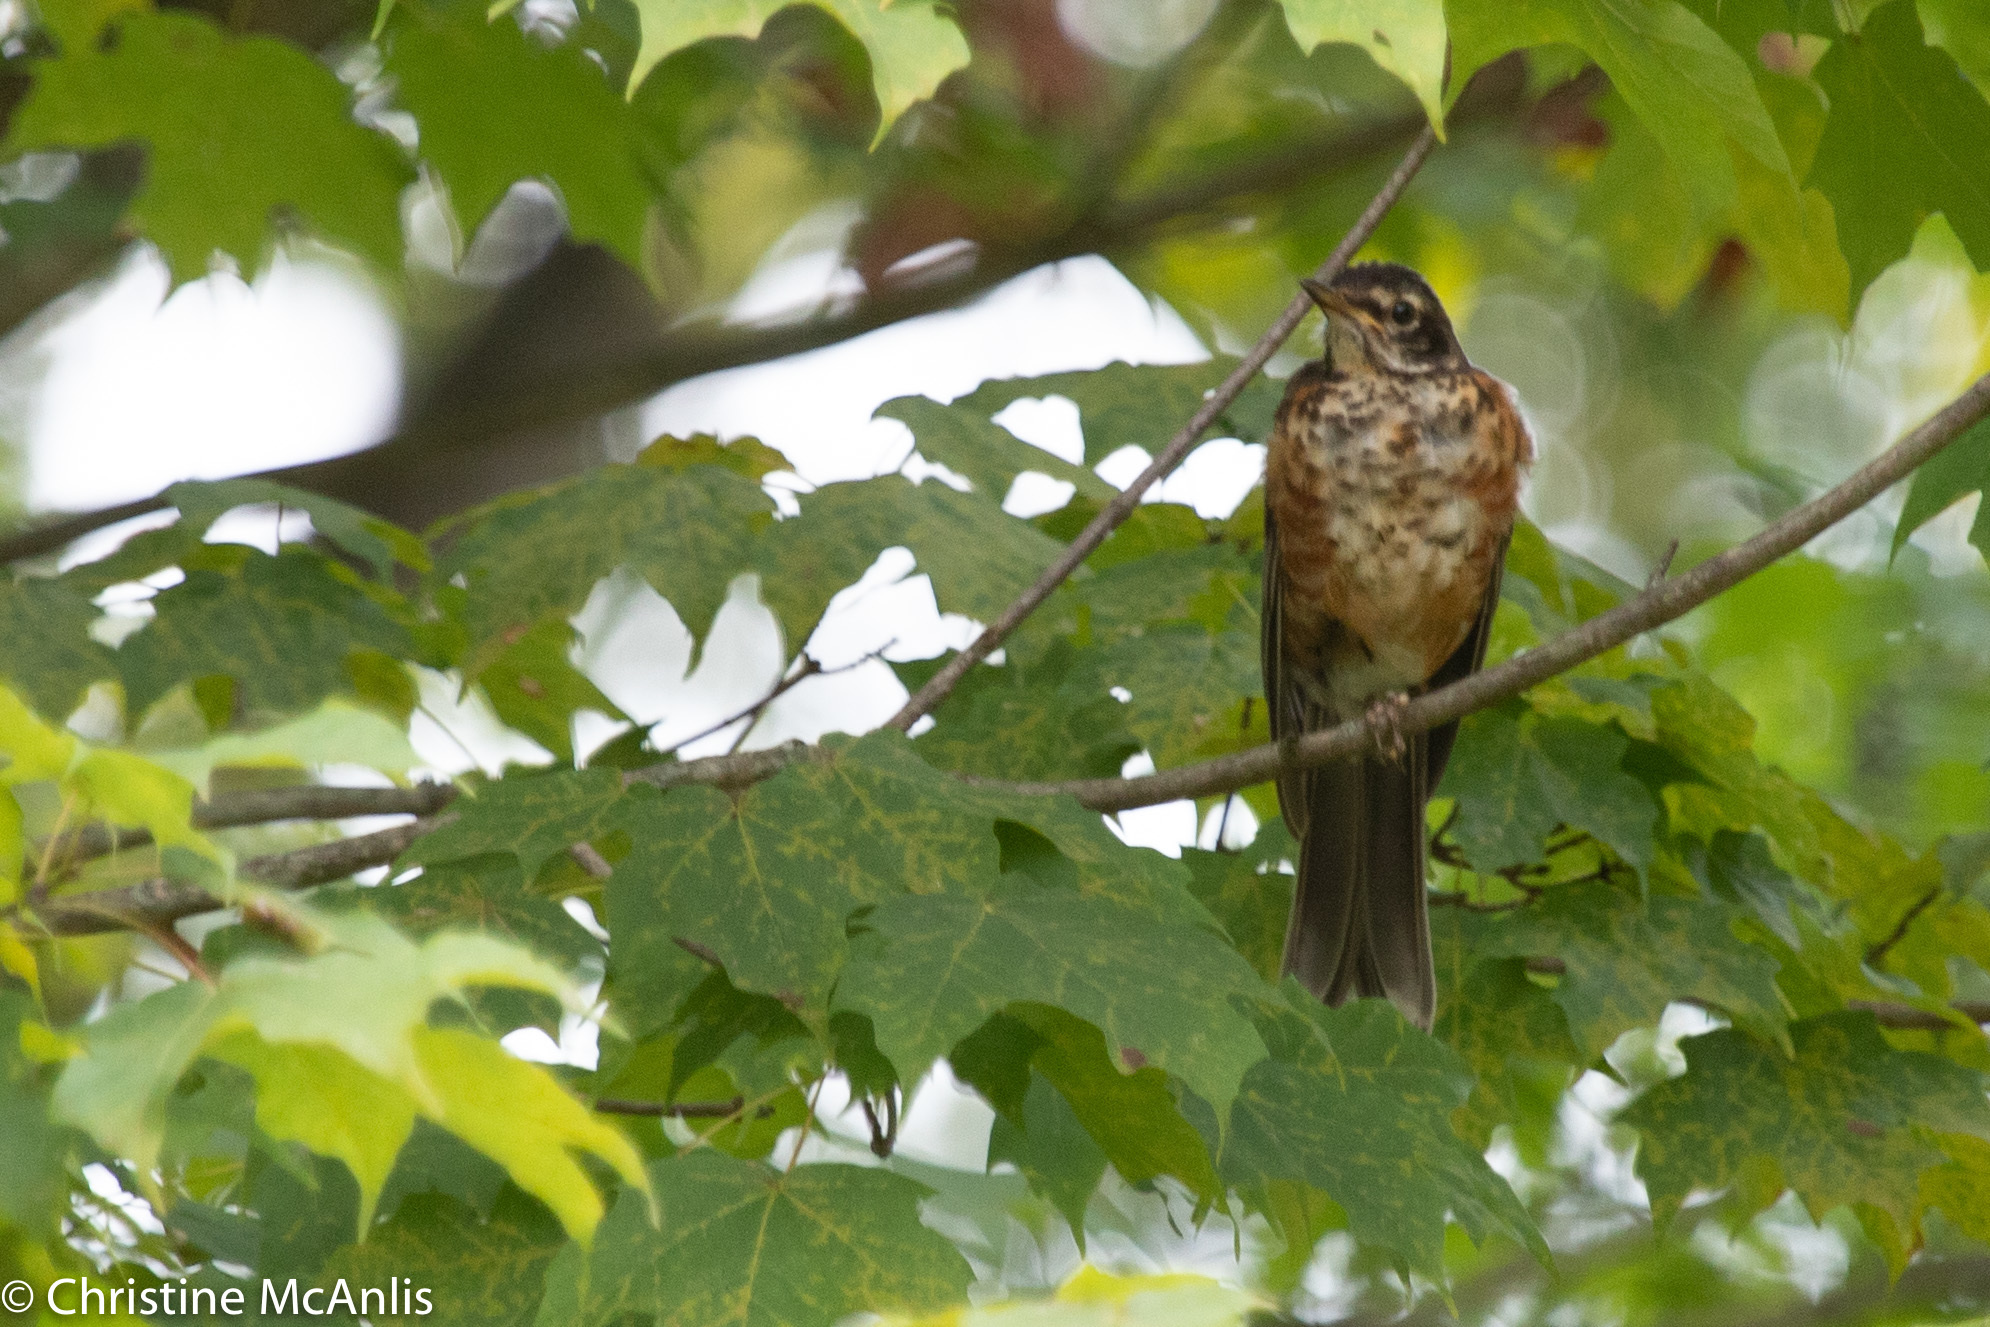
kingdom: Animalia
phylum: Chordata
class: Aves
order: Passeriformes
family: Turdidae
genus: Turdus
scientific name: Turdus migratorius
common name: American robin
